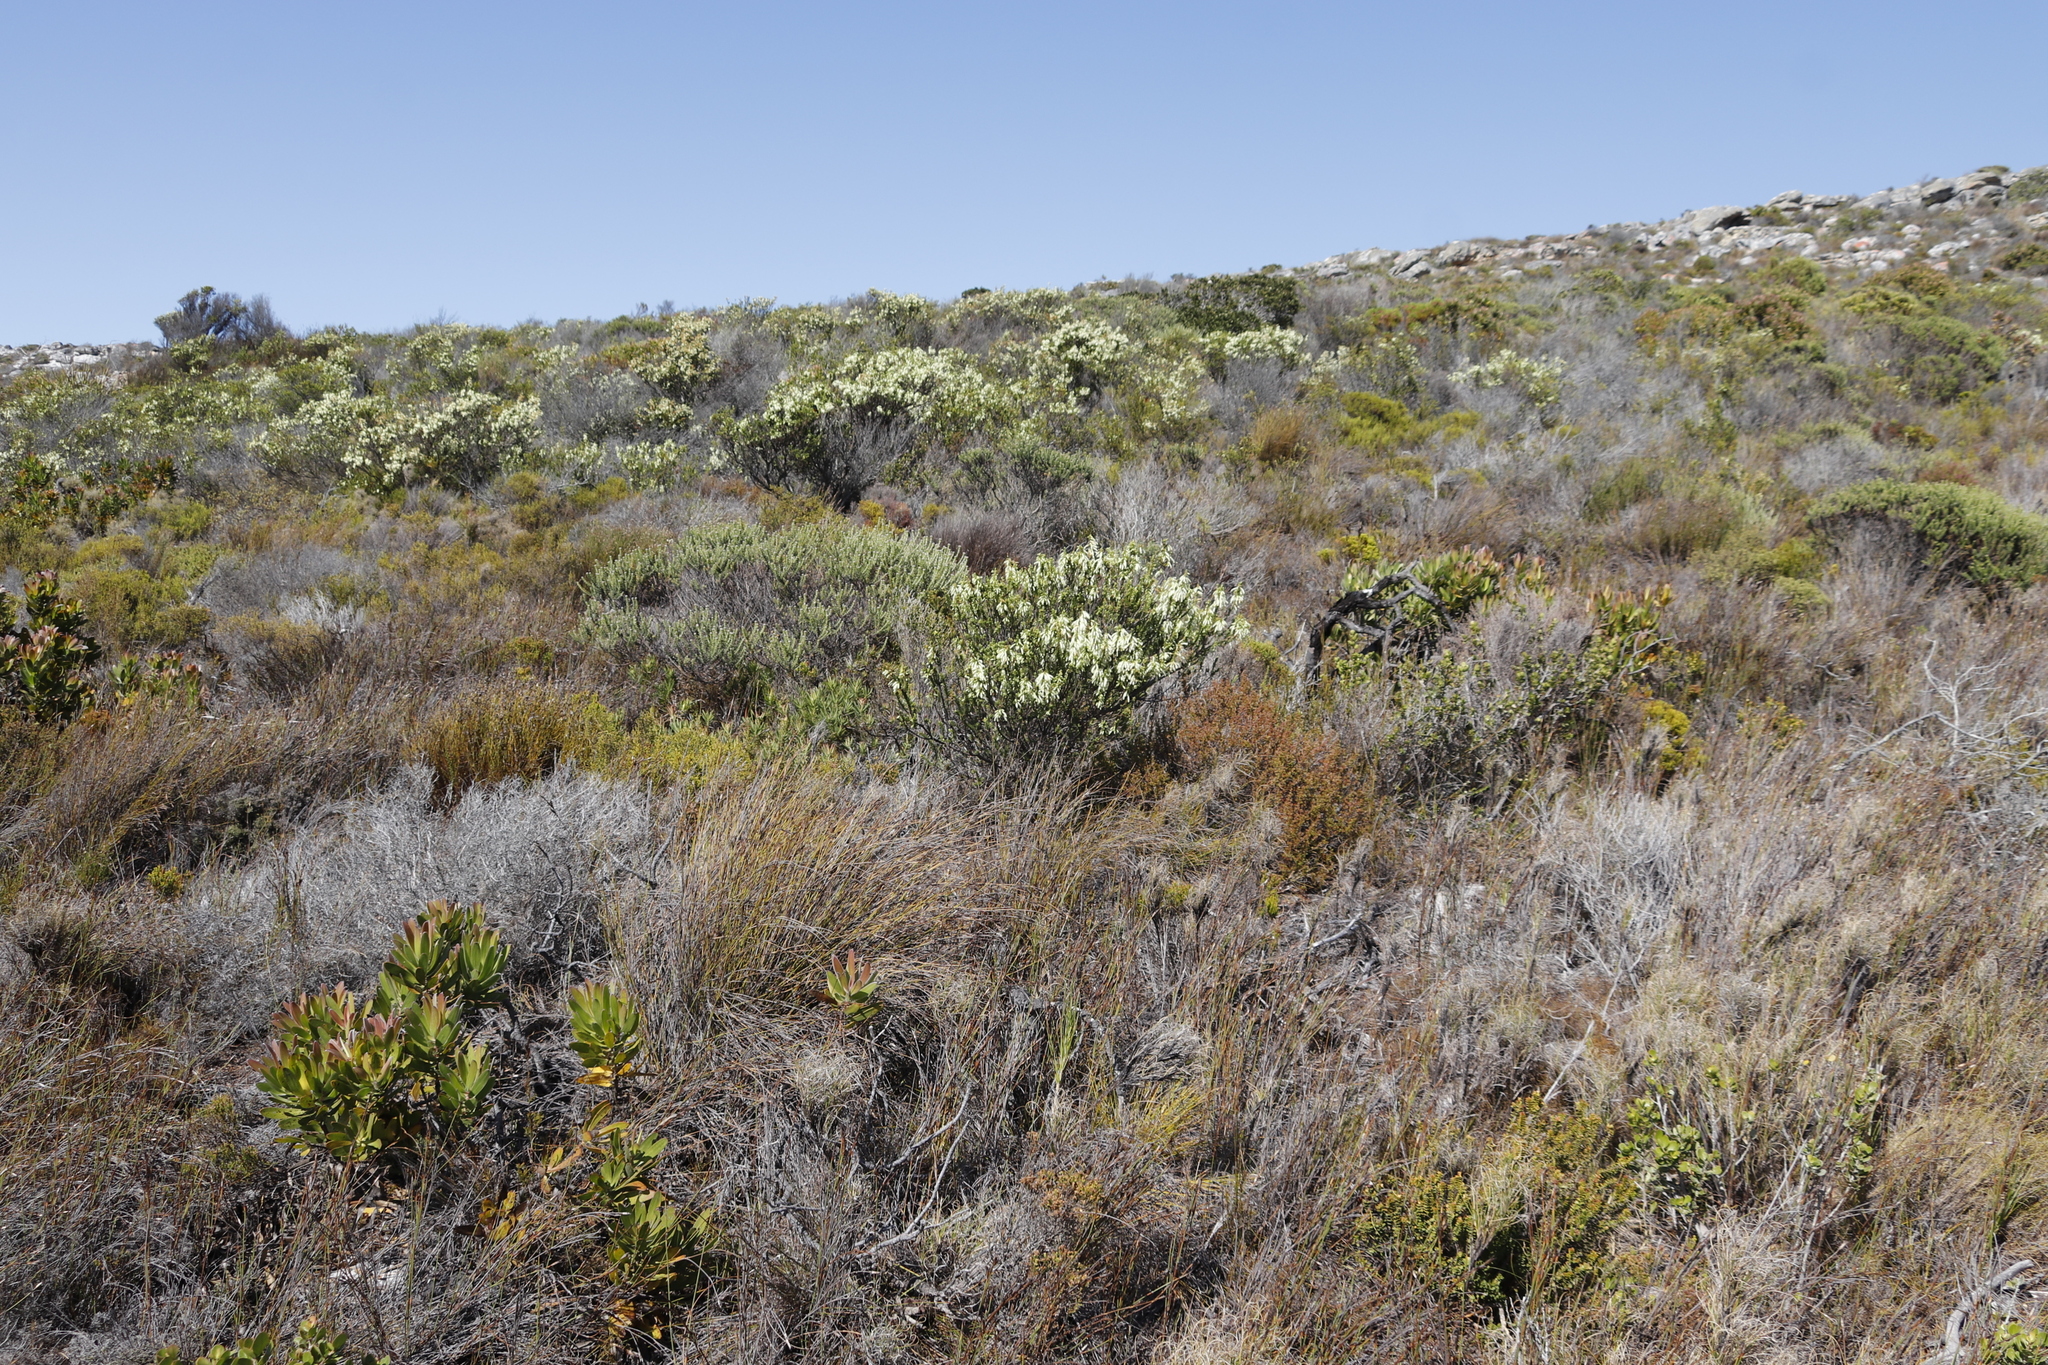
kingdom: Plantae
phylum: Tracheophyta
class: Magnoliopsida
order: Ericales
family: Ericaceae
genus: Erica
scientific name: Erica mammosa
